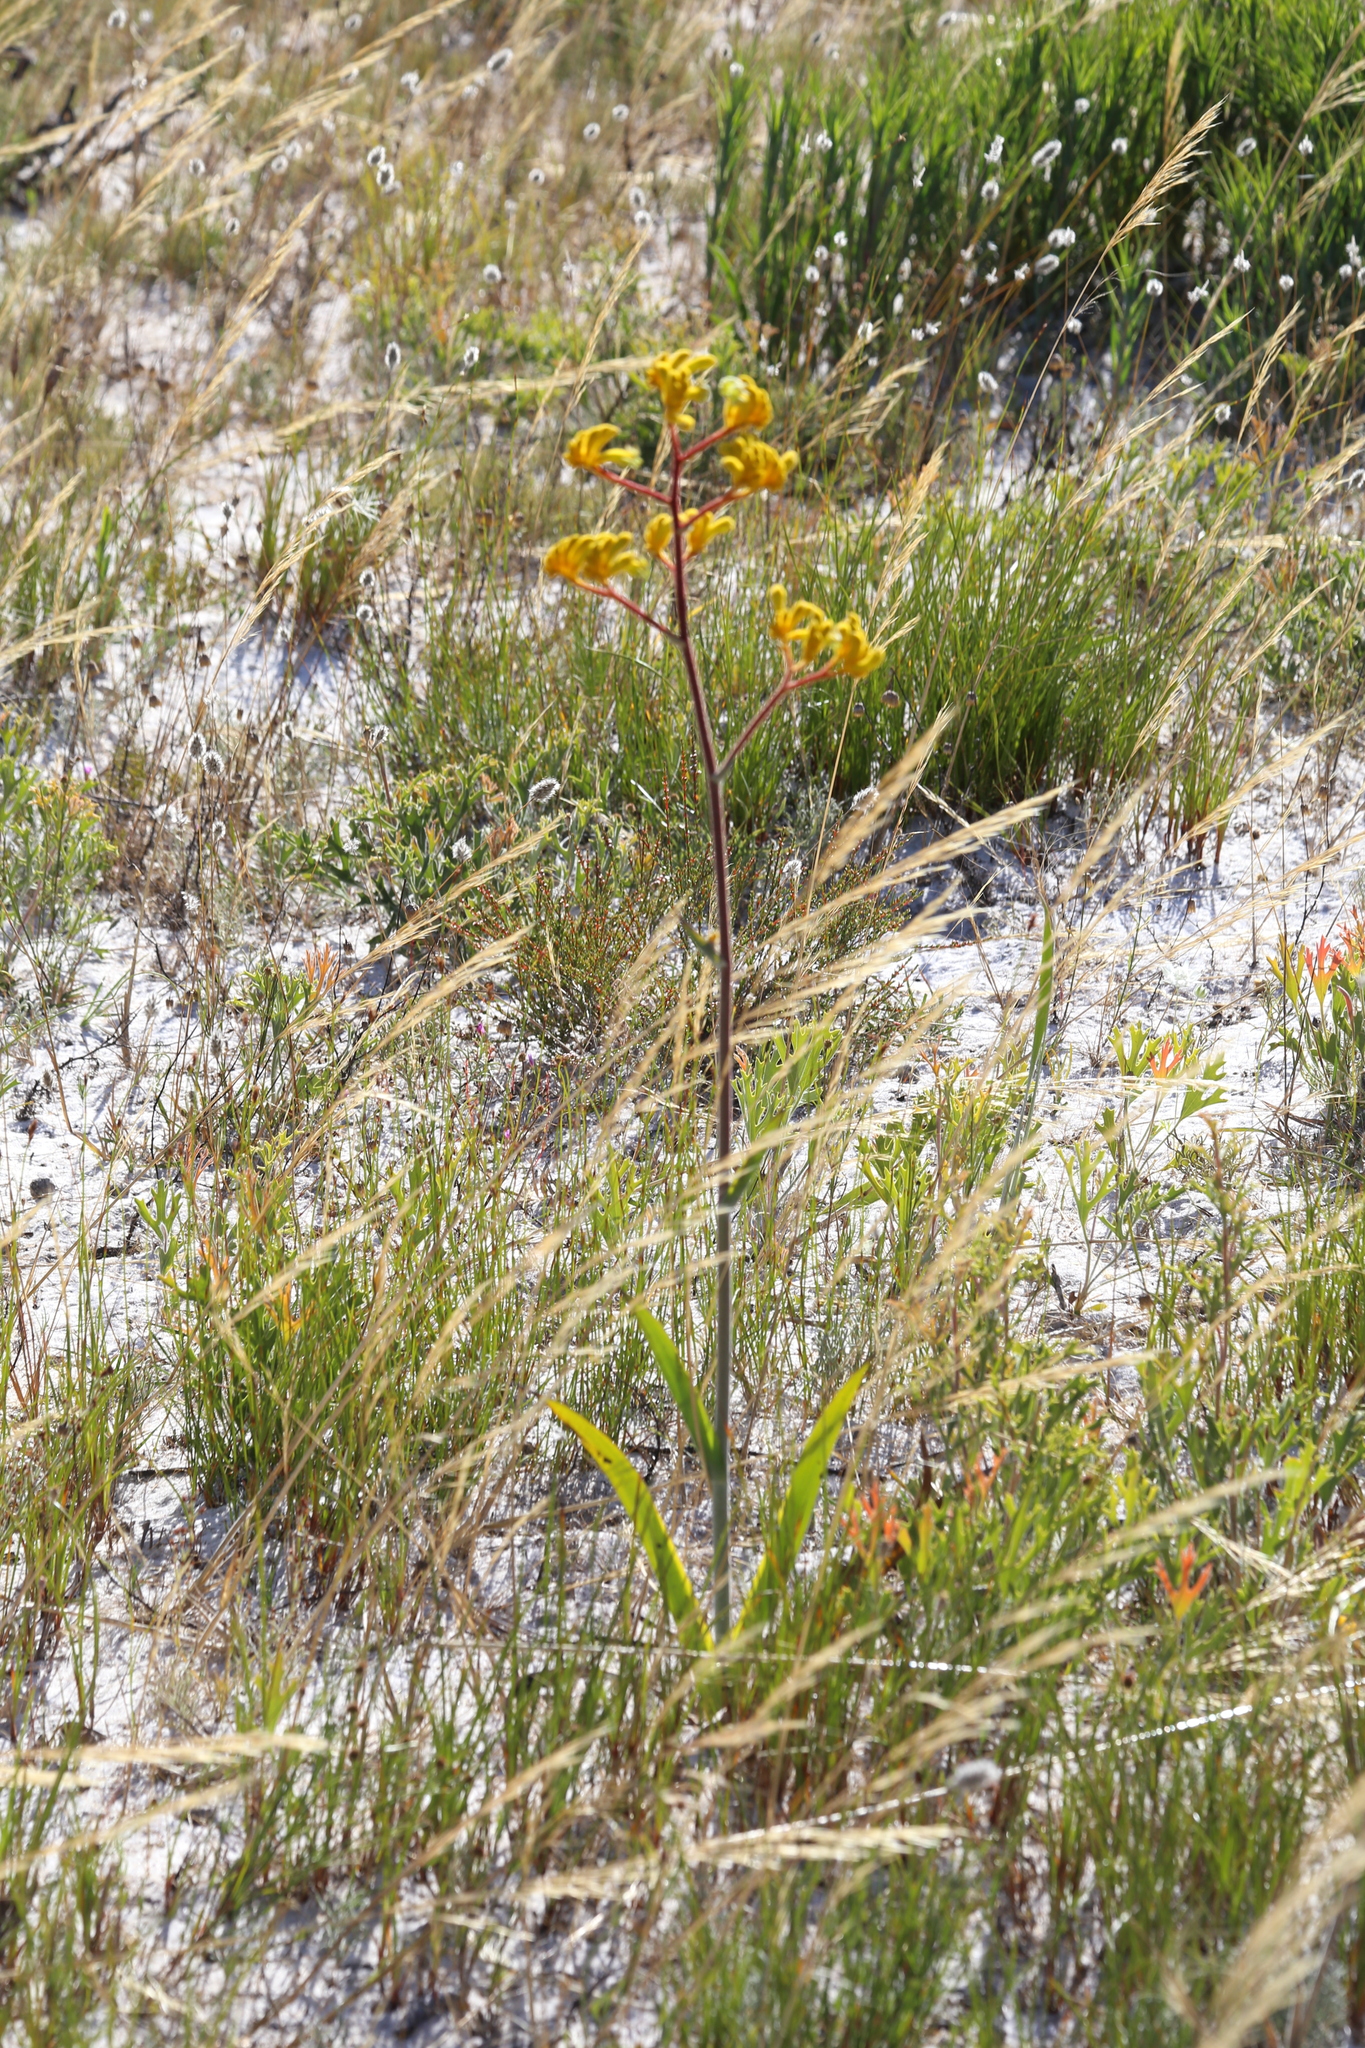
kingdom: Plantae
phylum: Tracheophyta
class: Liliopsida
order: Commelinales
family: Haemodoraceae
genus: Anigozanthos
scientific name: Anigozanthos pulcherrimus
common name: Yellow kangaroo-paw
